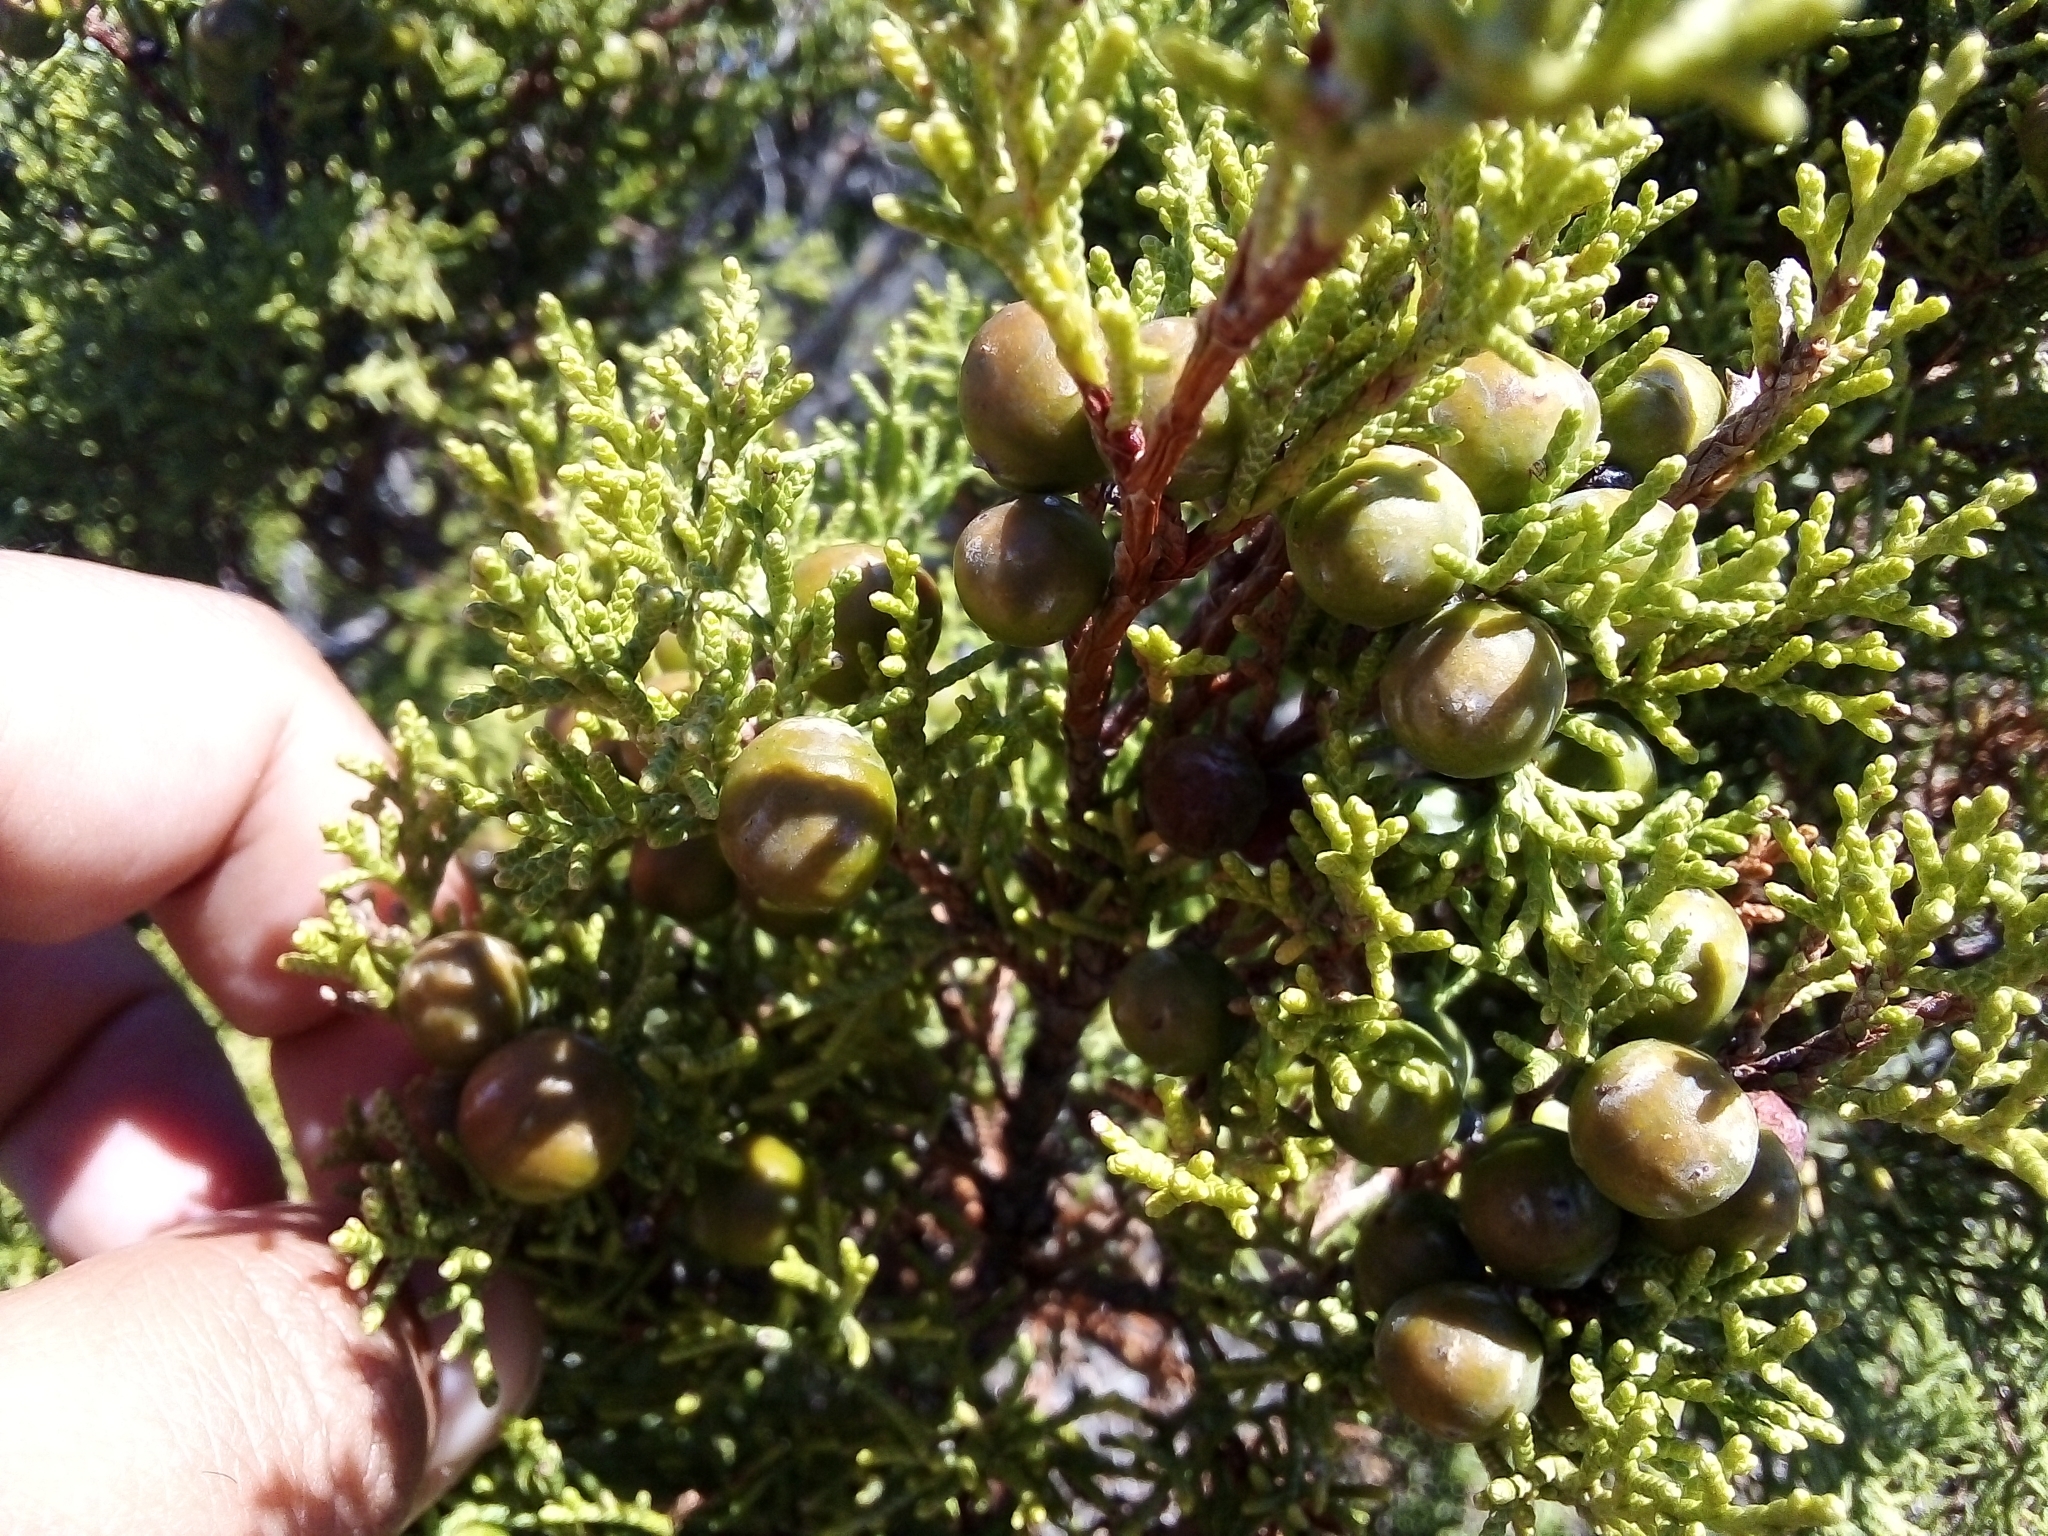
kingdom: Plantae
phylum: Tracheophyta
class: Pinopsida
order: Pinales
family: Cupressaceae
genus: Juniperus
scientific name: Juniperus phoenicea
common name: Phoenician juniper
